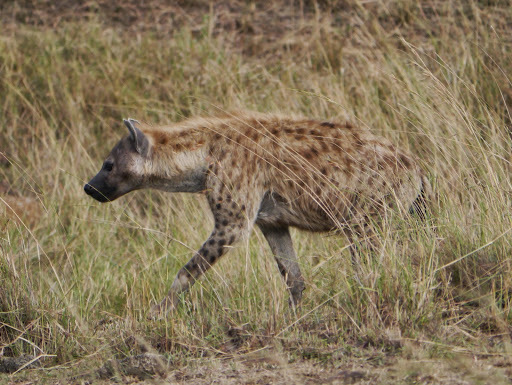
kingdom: Animalia
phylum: Chordata
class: Mammalia
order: Carnivora
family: Hyaenidae
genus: Crocuta
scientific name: Crocuta crocuta
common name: Spotted hyaena
